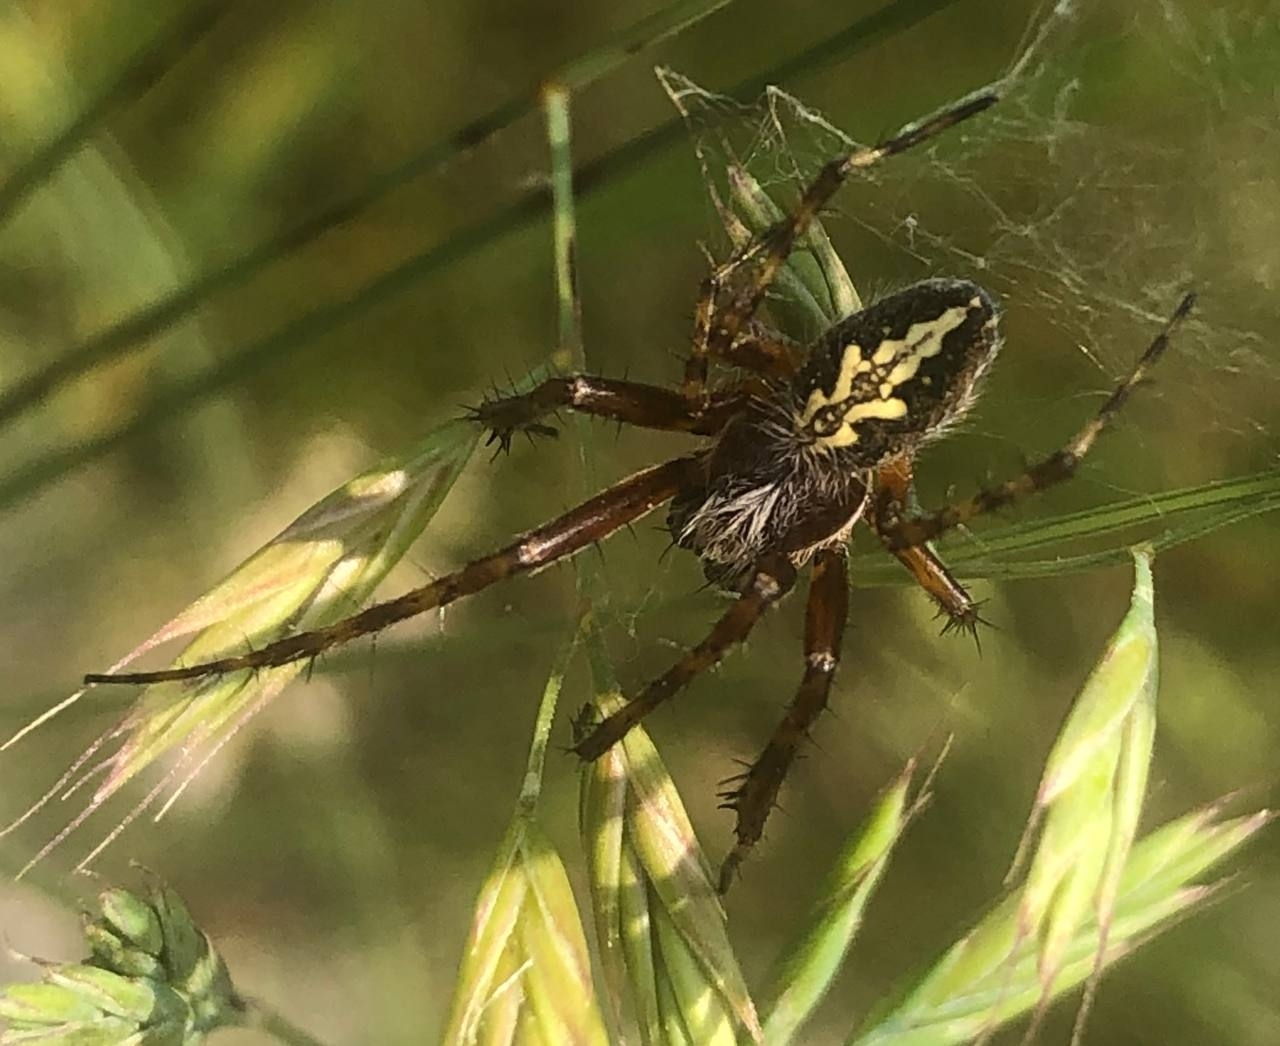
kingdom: Animalia
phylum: Arthropoda
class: Arachnida
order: Araneae
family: Araneidae
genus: Aculepeira
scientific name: Aculepeira ceropegia
